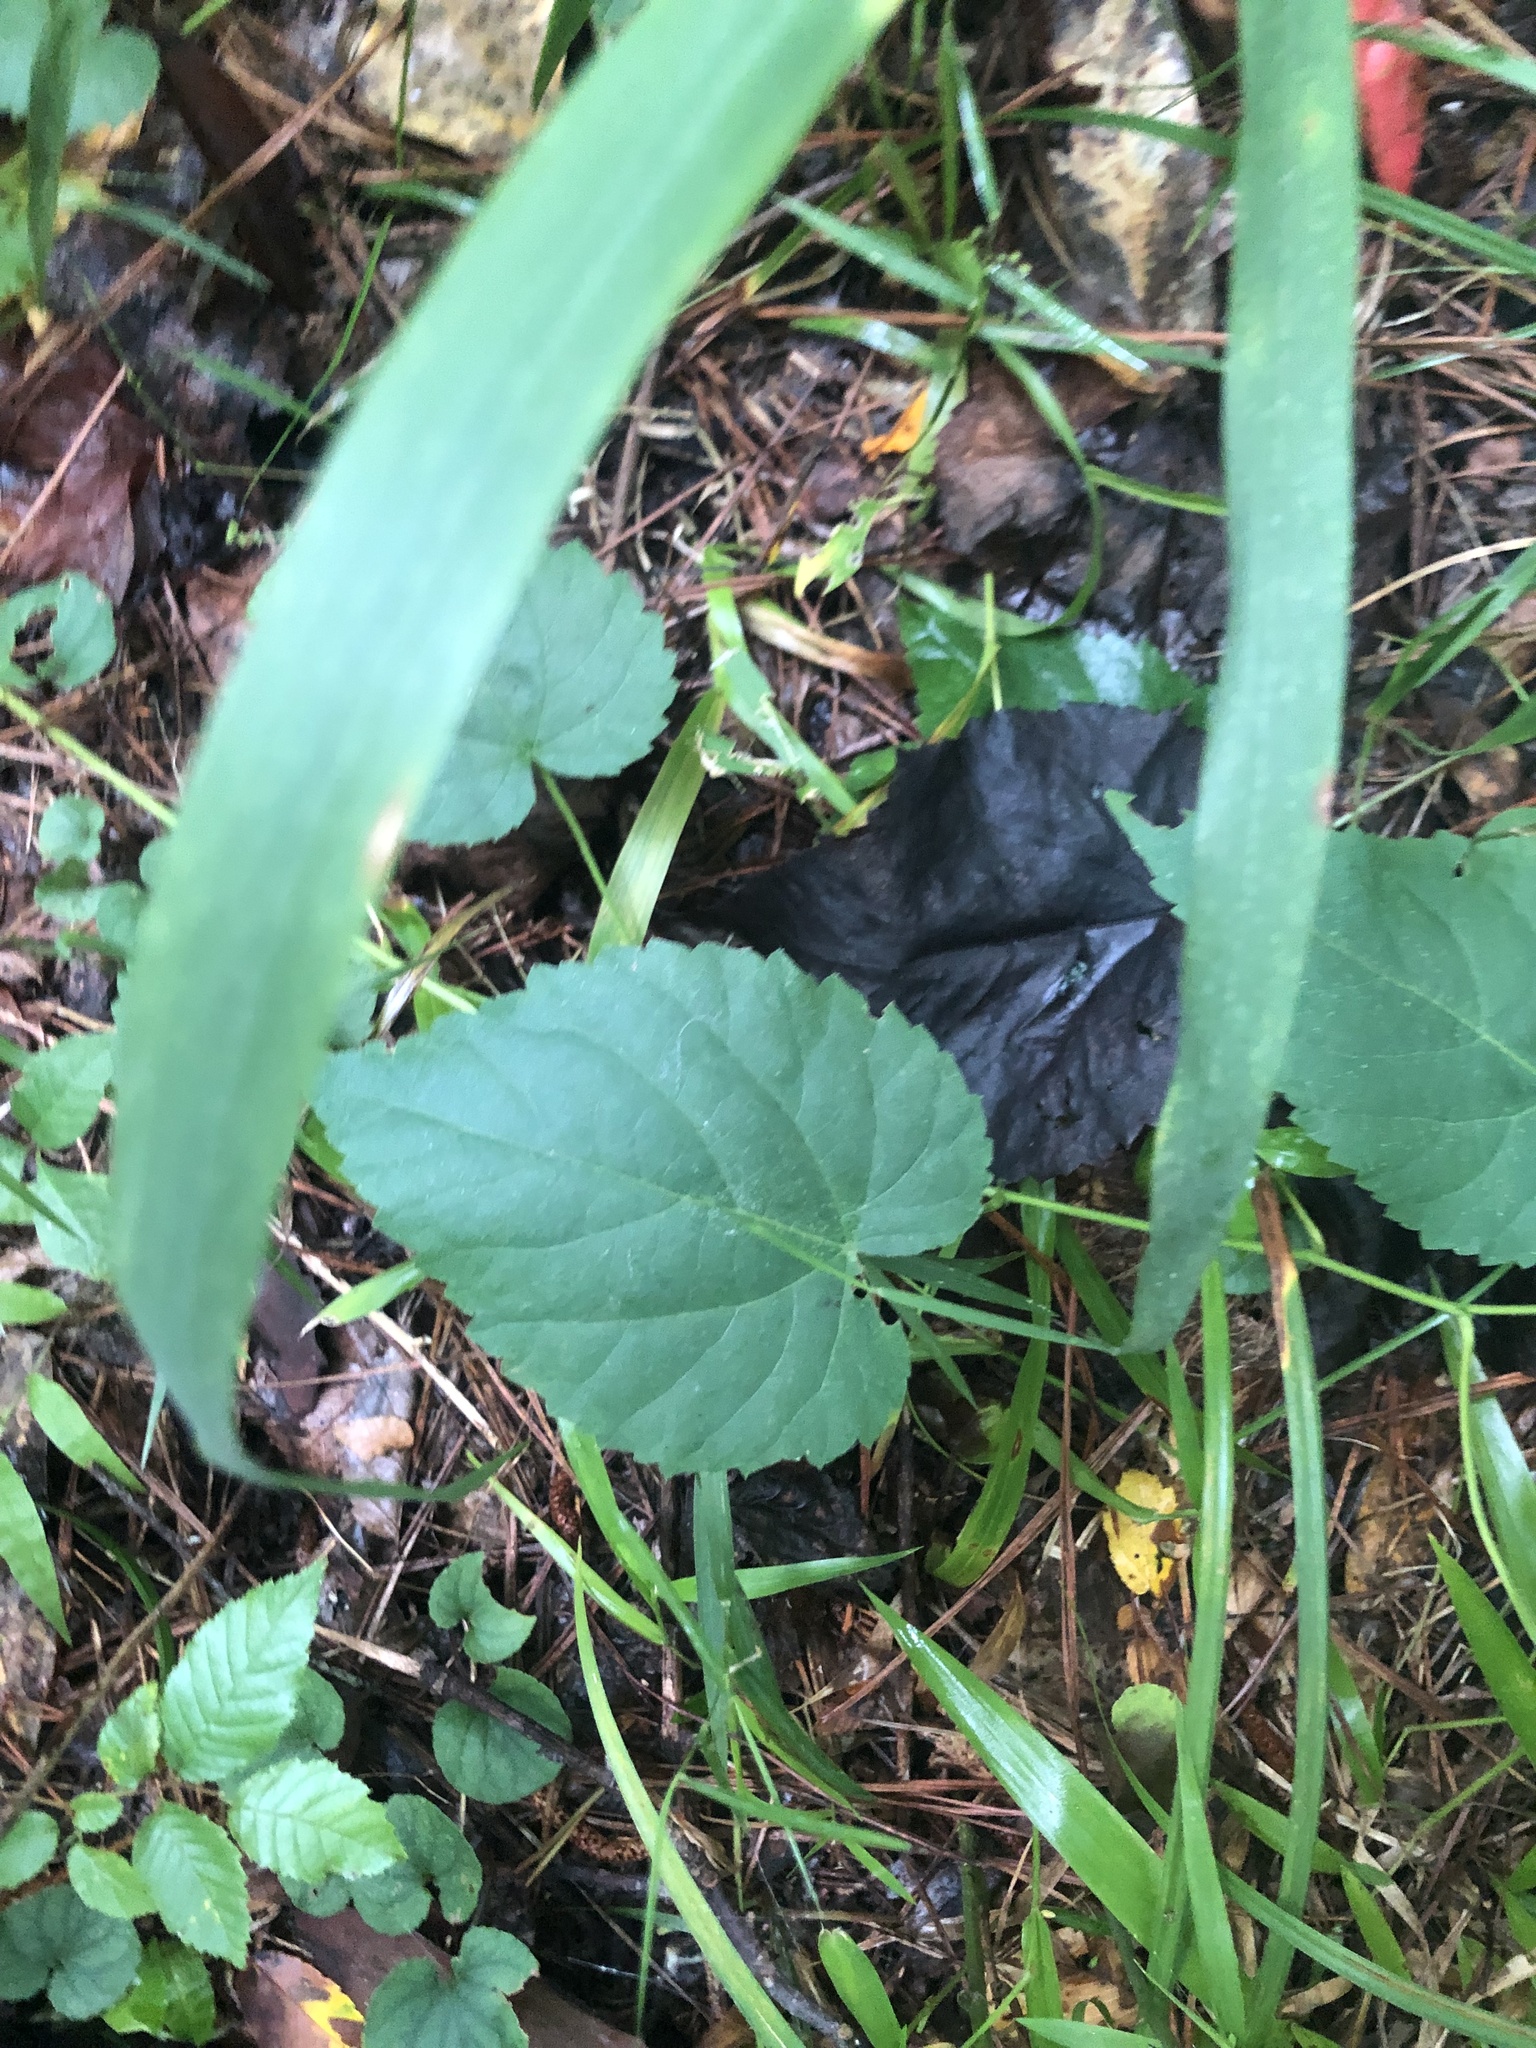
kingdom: Plantae
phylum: Tracheophyta
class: Magnoliopsida
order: Malpighiales
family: Euphorbiaceae
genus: Tragia
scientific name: Tragia cordata
